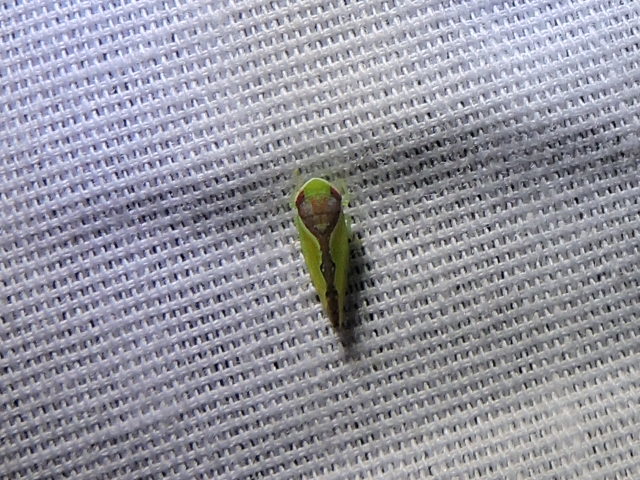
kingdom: Animalia
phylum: Arthropoda
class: Insecta
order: Hemiptera
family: Cicadellidae
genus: Omansobara ing
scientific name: Omansobara ing Omansobara palliolata
